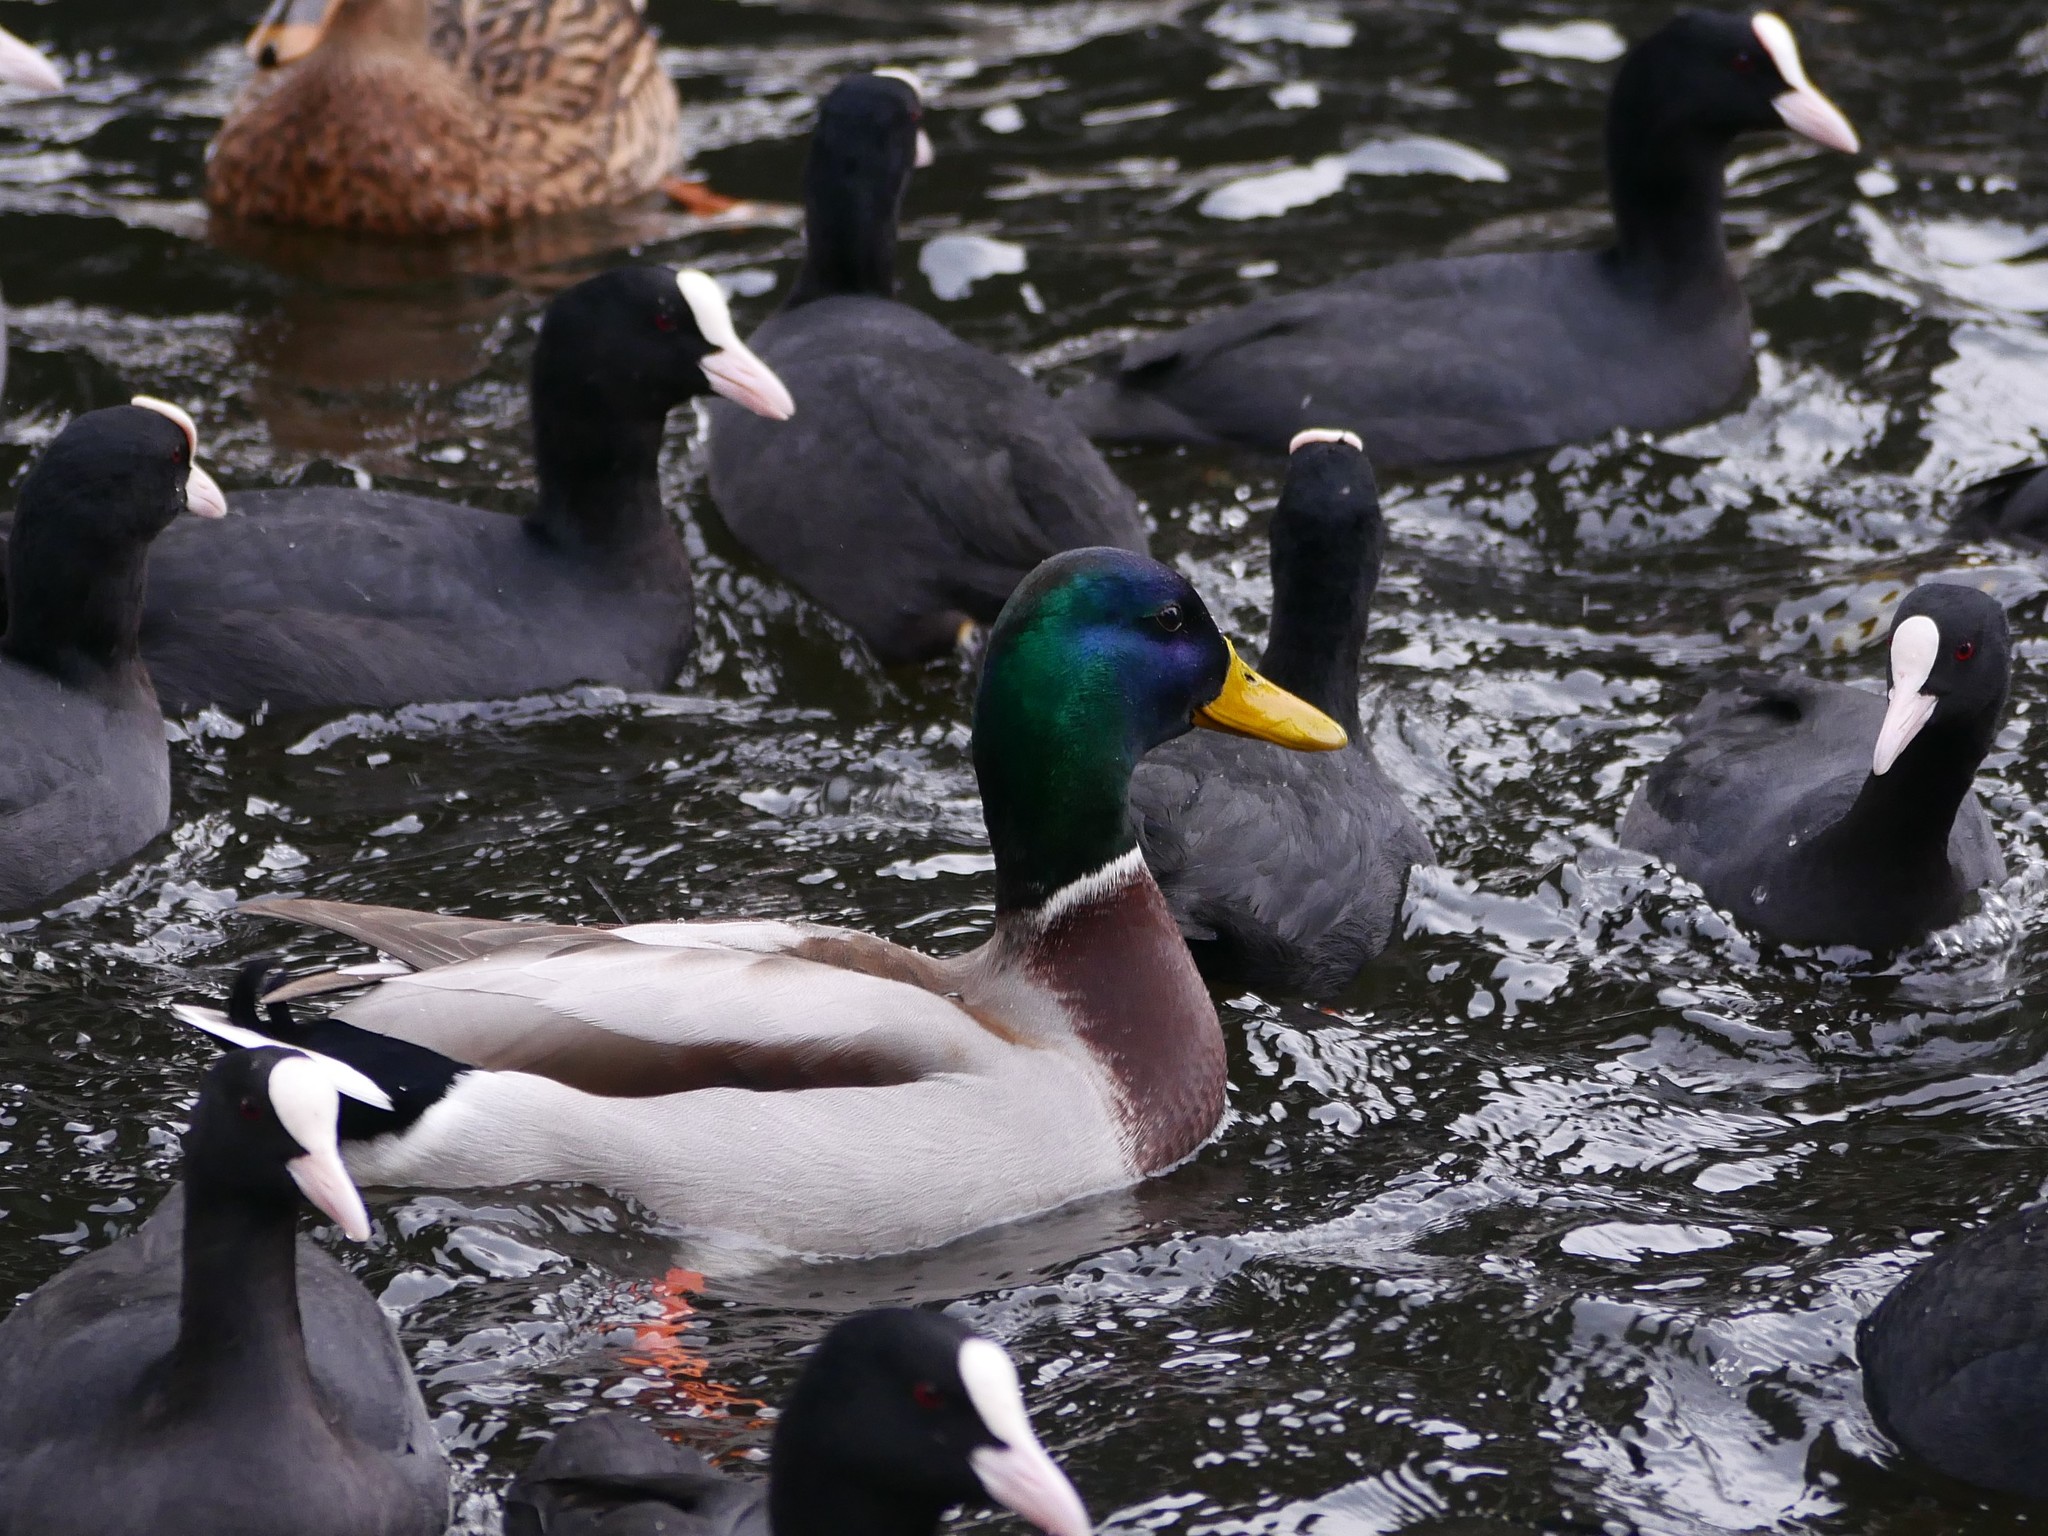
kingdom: Animalia
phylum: Chordata
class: Aves
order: Anseriformes
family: Anatidae
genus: Anas
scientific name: Anas platyrhynchos
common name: Mallard
